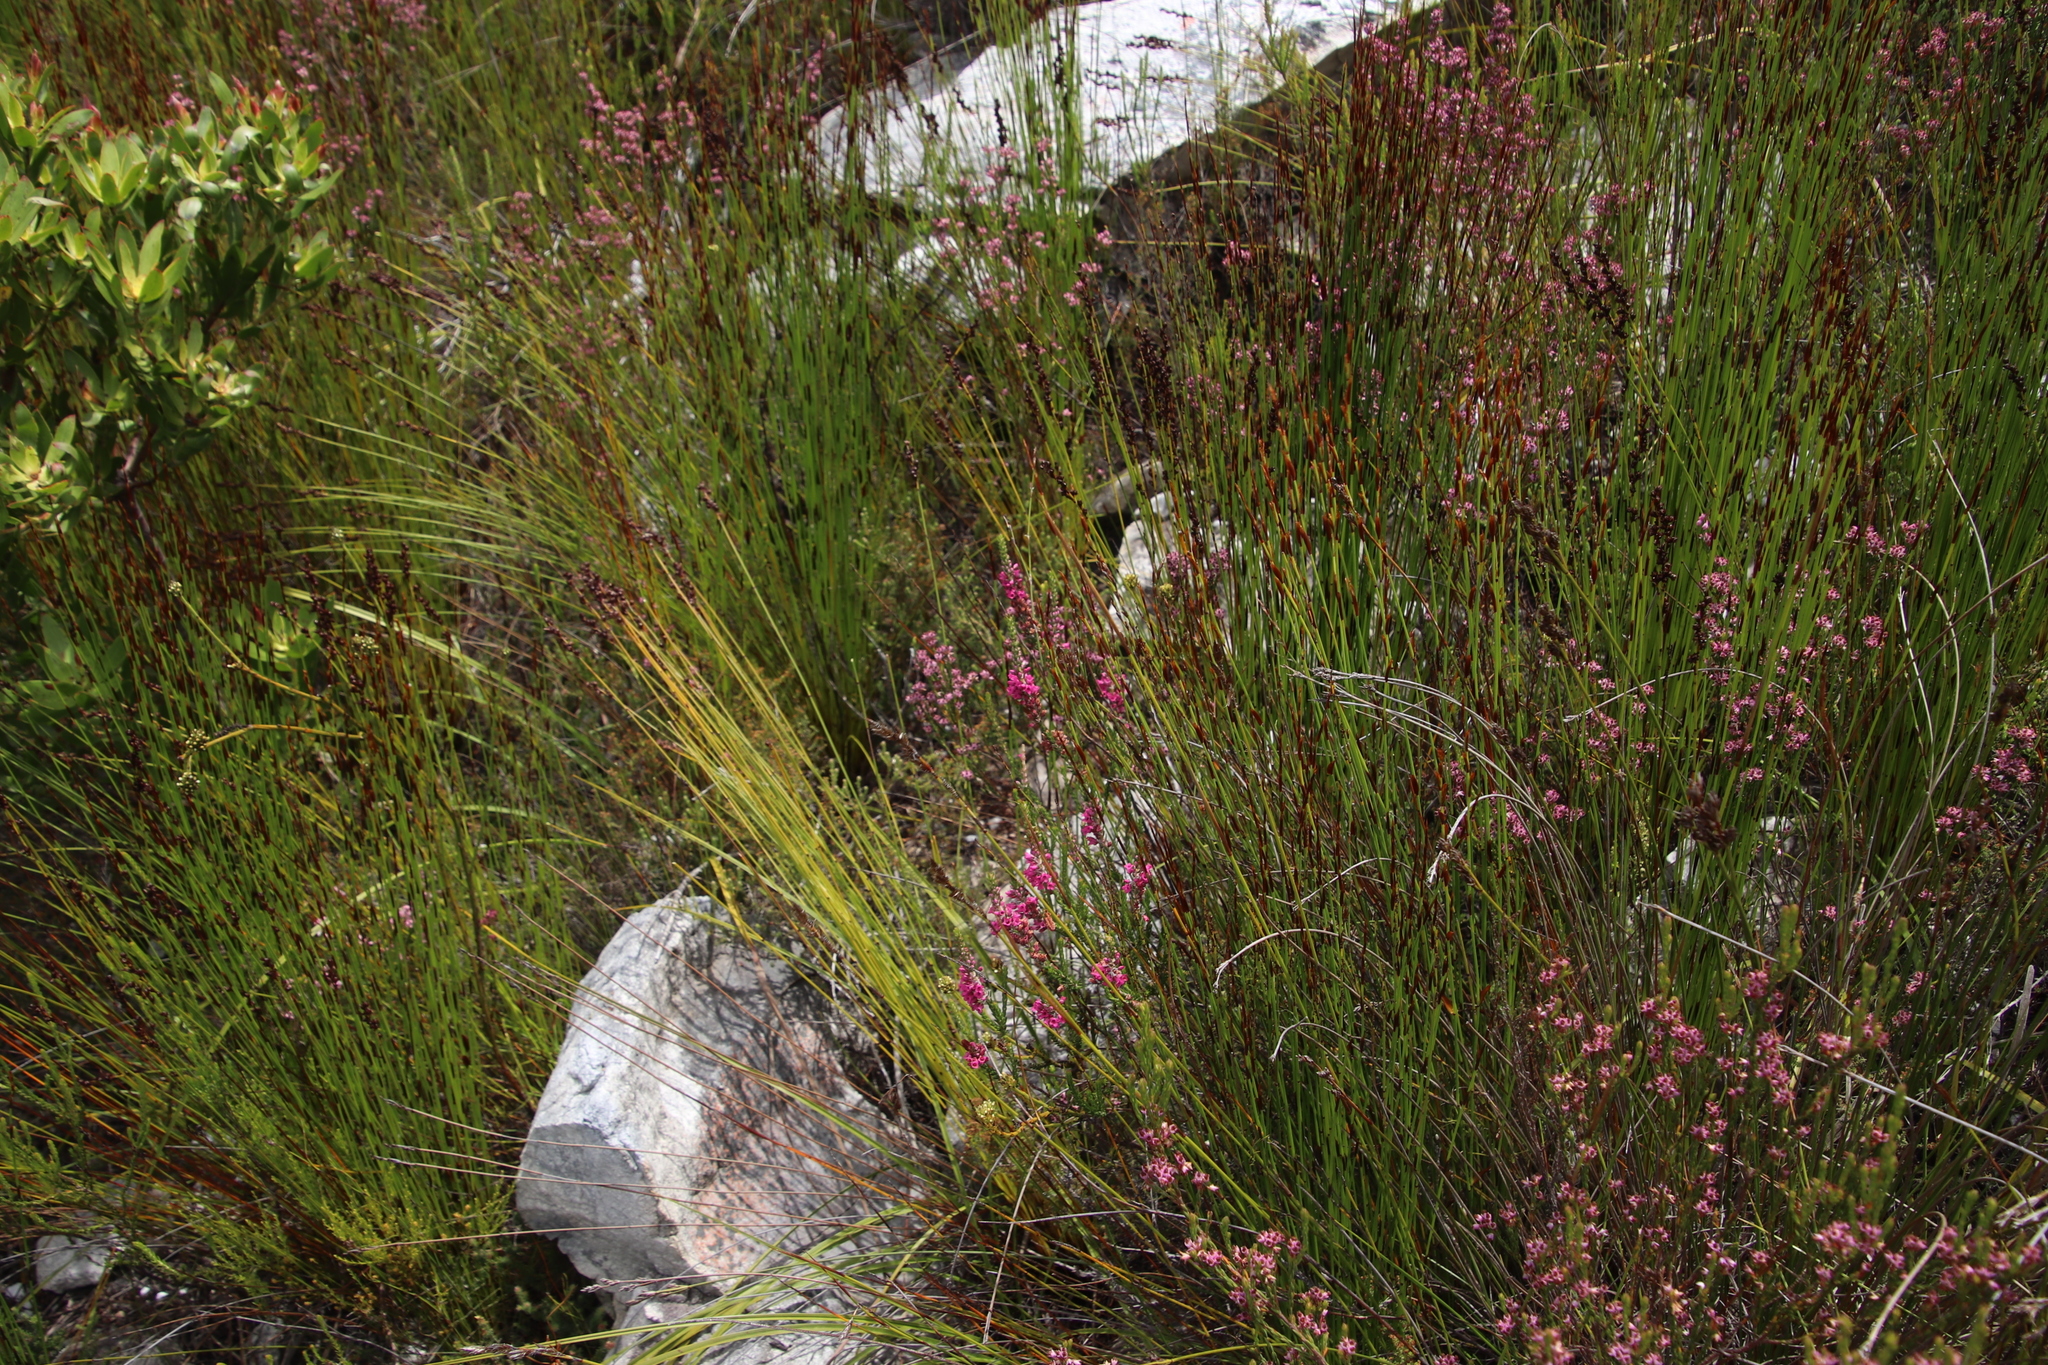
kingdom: Plantae
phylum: Tracheophyta
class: Magnoliopsida
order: Ericales
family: Ericaceae
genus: Erica
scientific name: Erica longiaristata
